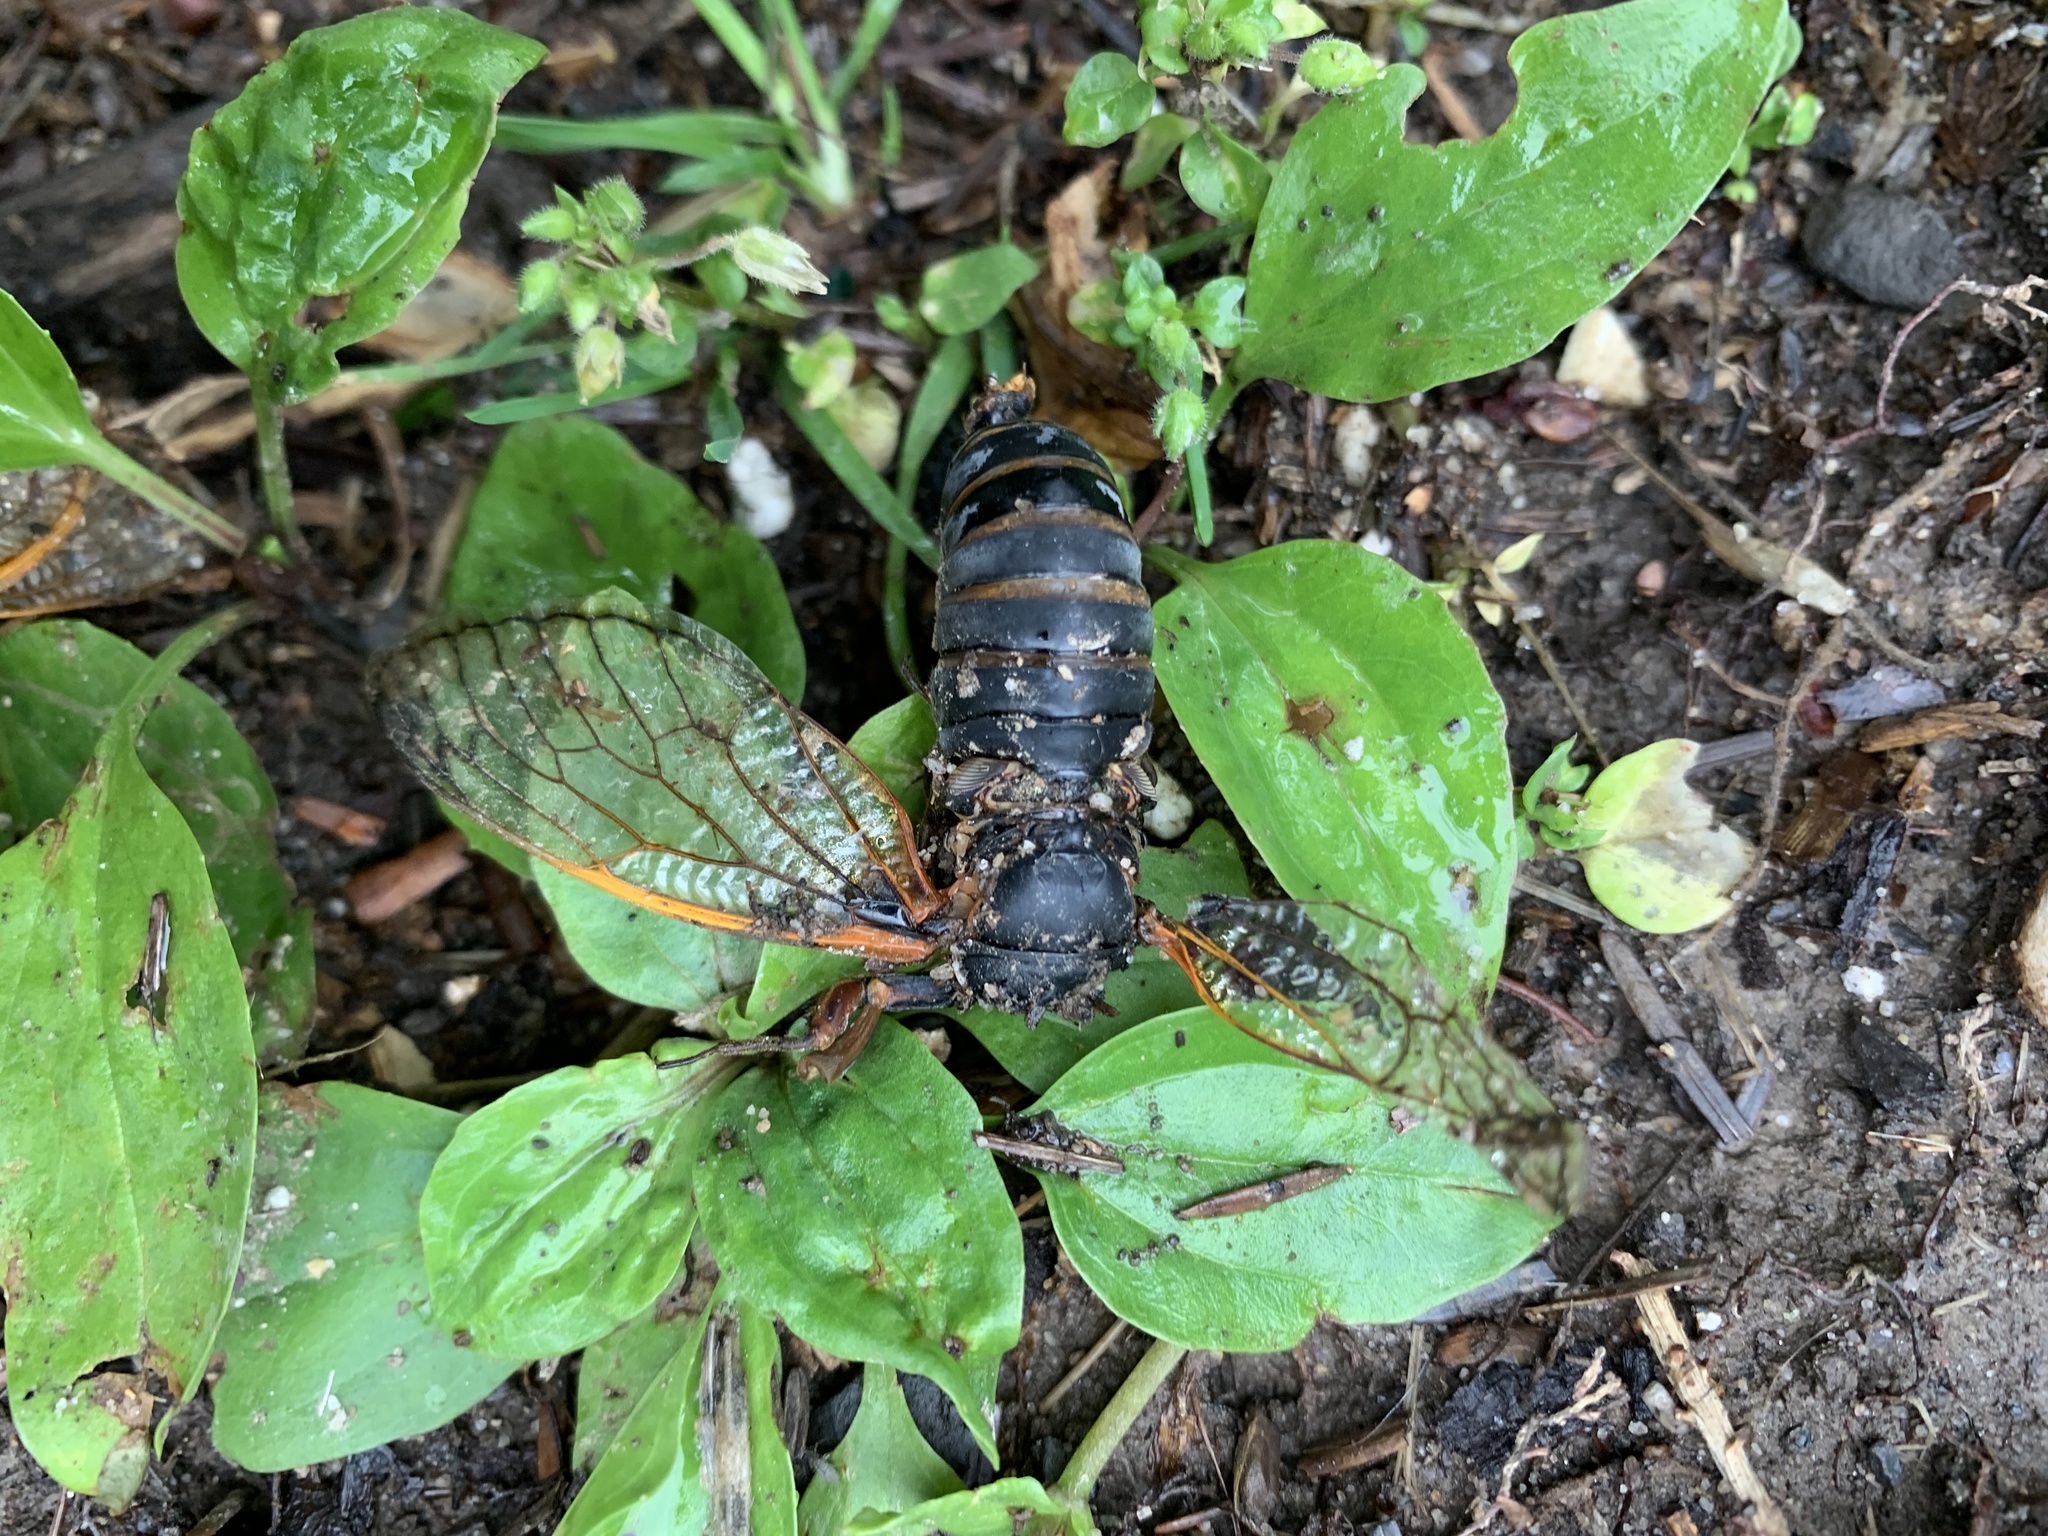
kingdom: Animalia
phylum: Arthropoda
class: Insecta
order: Hemiptera
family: Cicadidae
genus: Magicicada
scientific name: Magicicada
